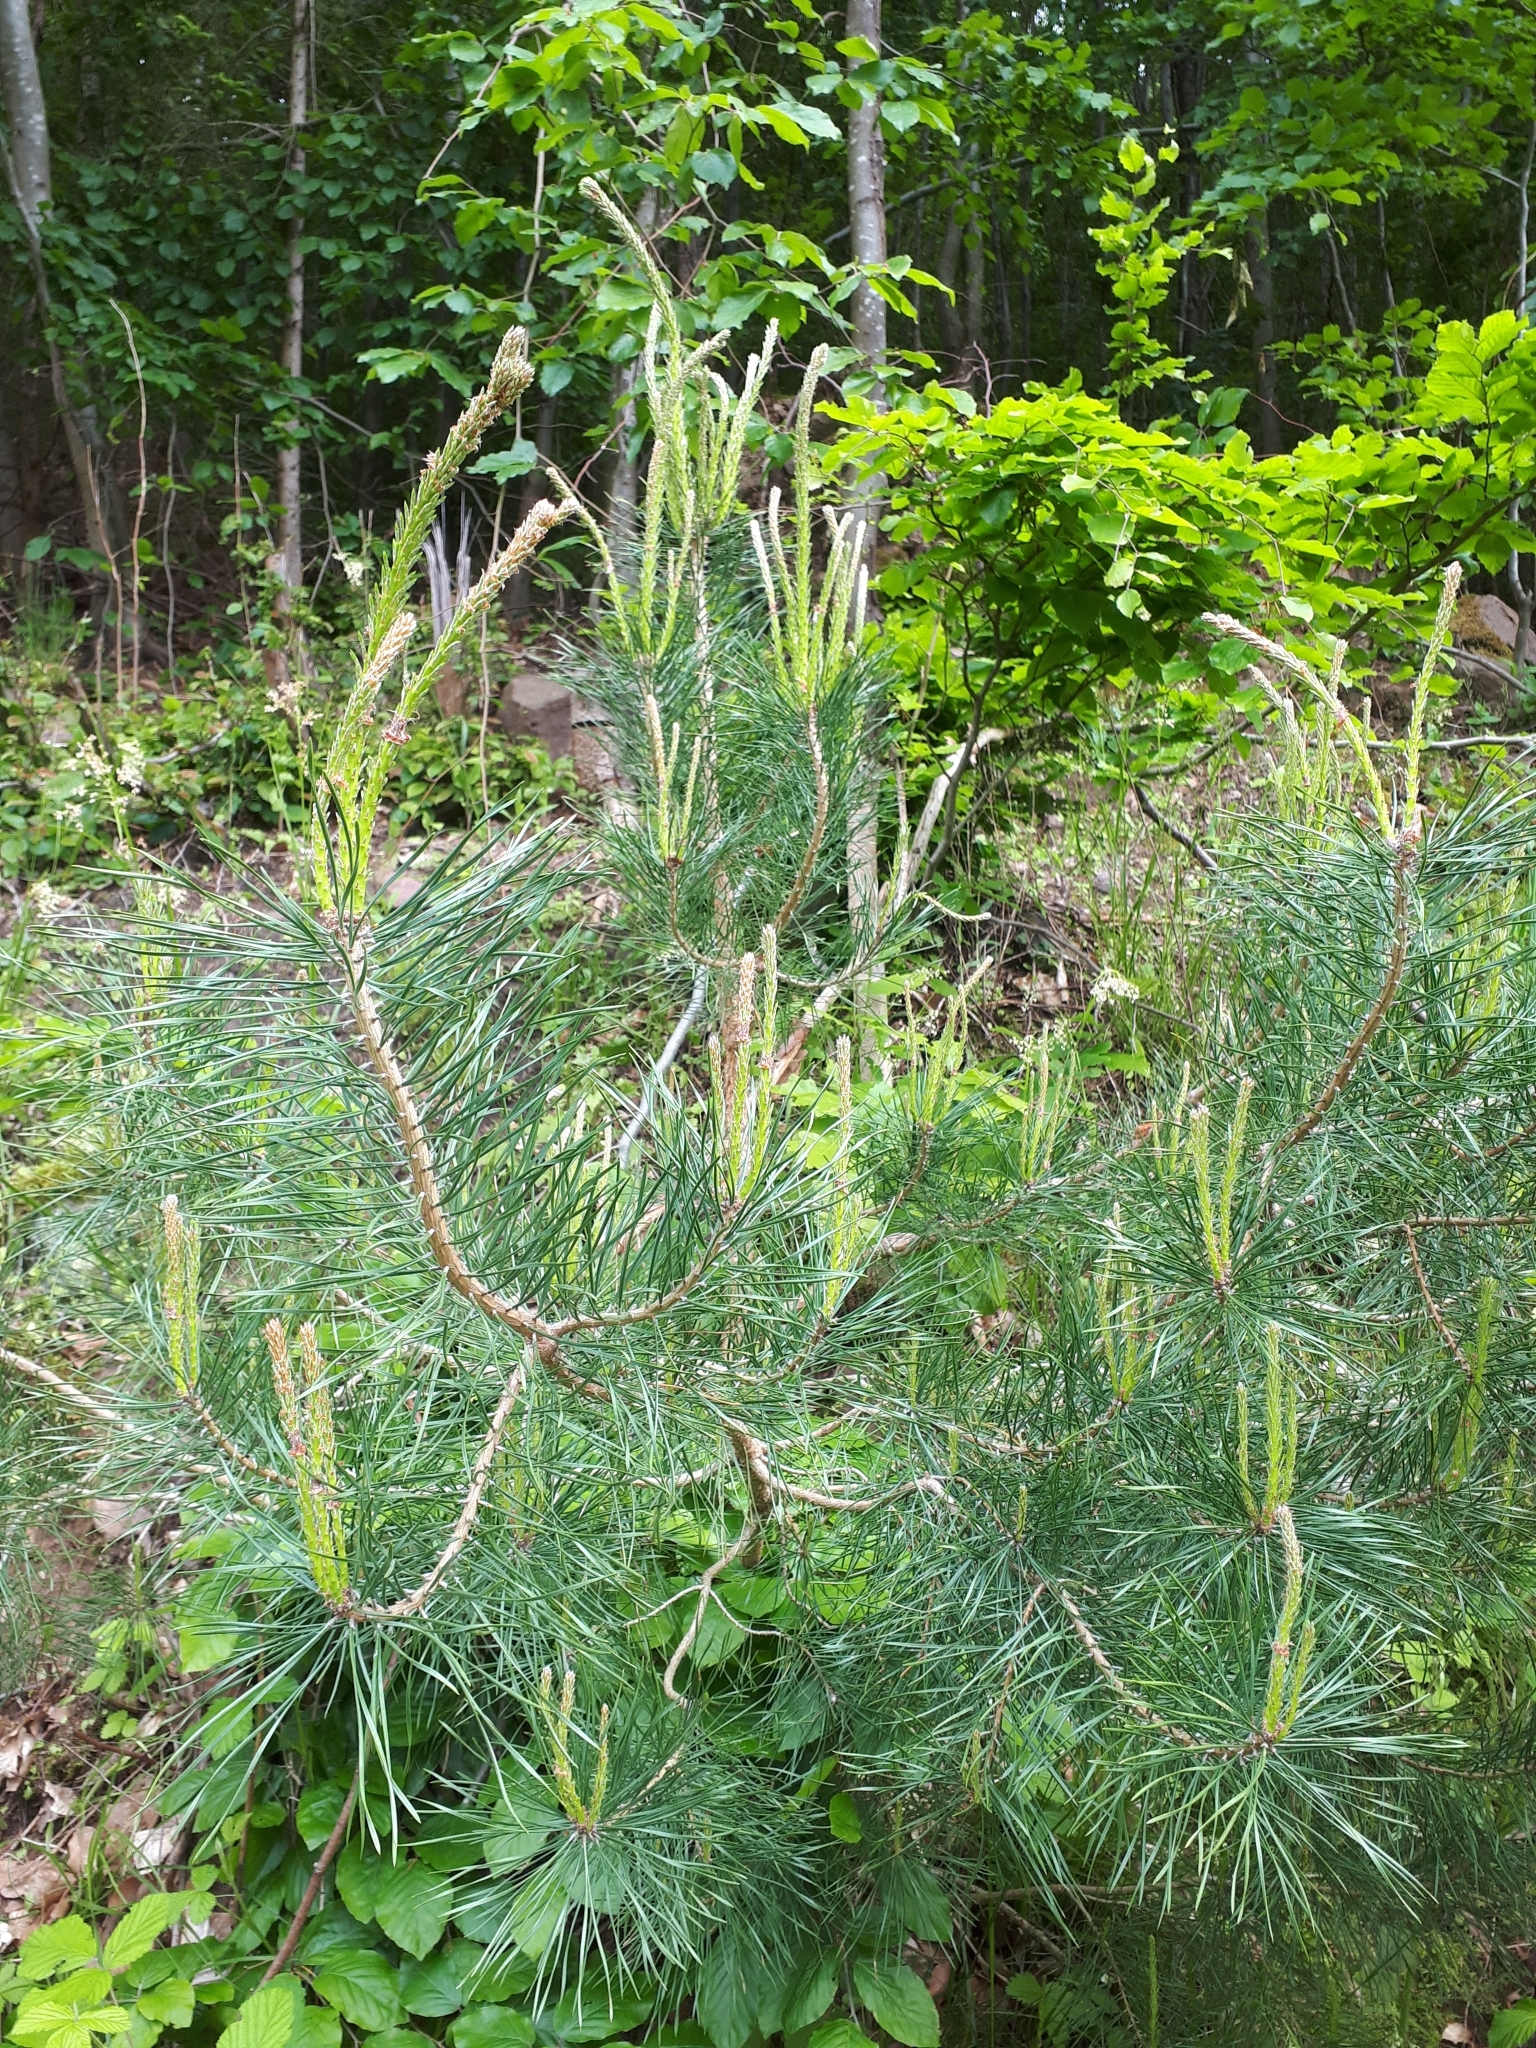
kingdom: Plantae
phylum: Tracheophyta
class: Pinopsida
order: Pinales
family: Pinaceae
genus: Pinus
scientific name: Pinus sylvestris
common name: Scots pine
